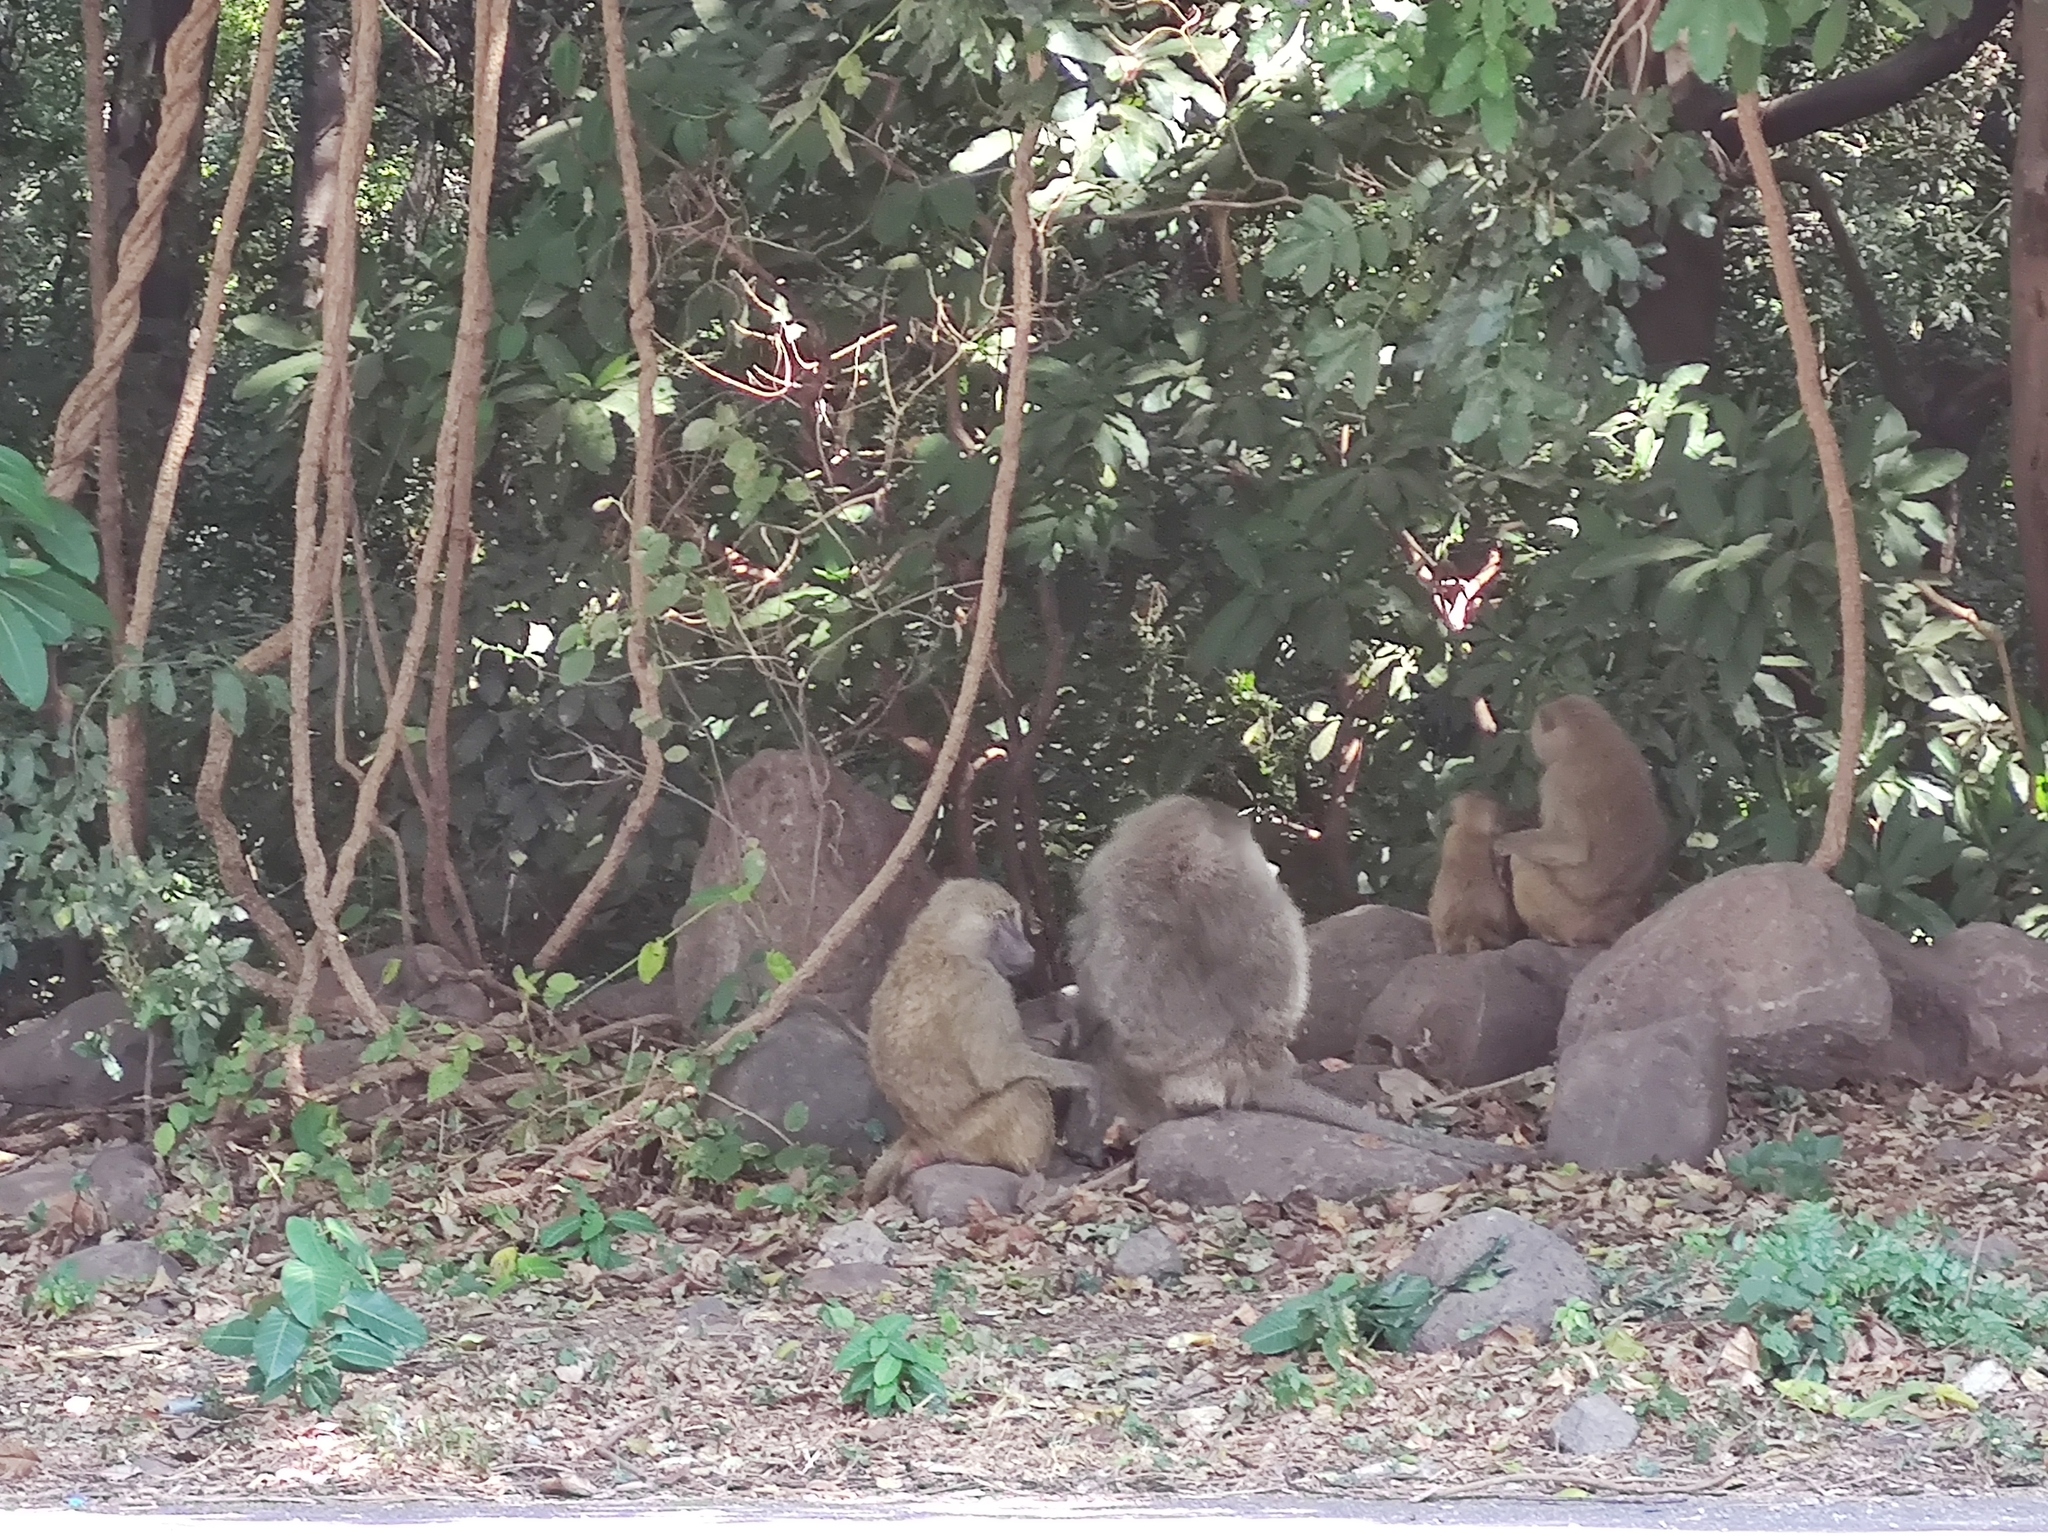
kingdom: Animalia
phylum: Chordata
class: Mammalia
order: Primates
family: Cercopithecidae
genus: Papio
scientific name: Papio anubis
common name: Olive baboon
